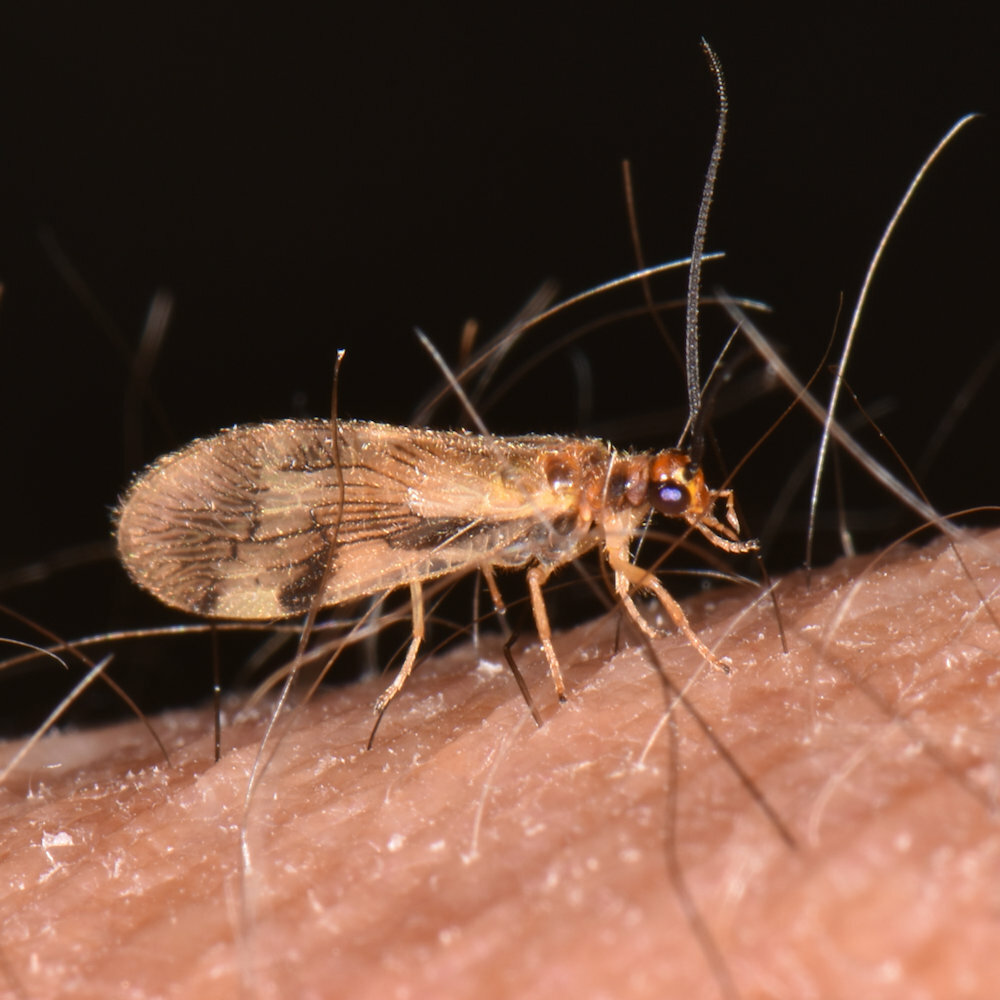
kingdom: Animalia
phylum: Arthropoda
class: Insecta
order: Neuroptera
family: Sisyridae
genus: Climacia
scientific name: Climacia areolaris
